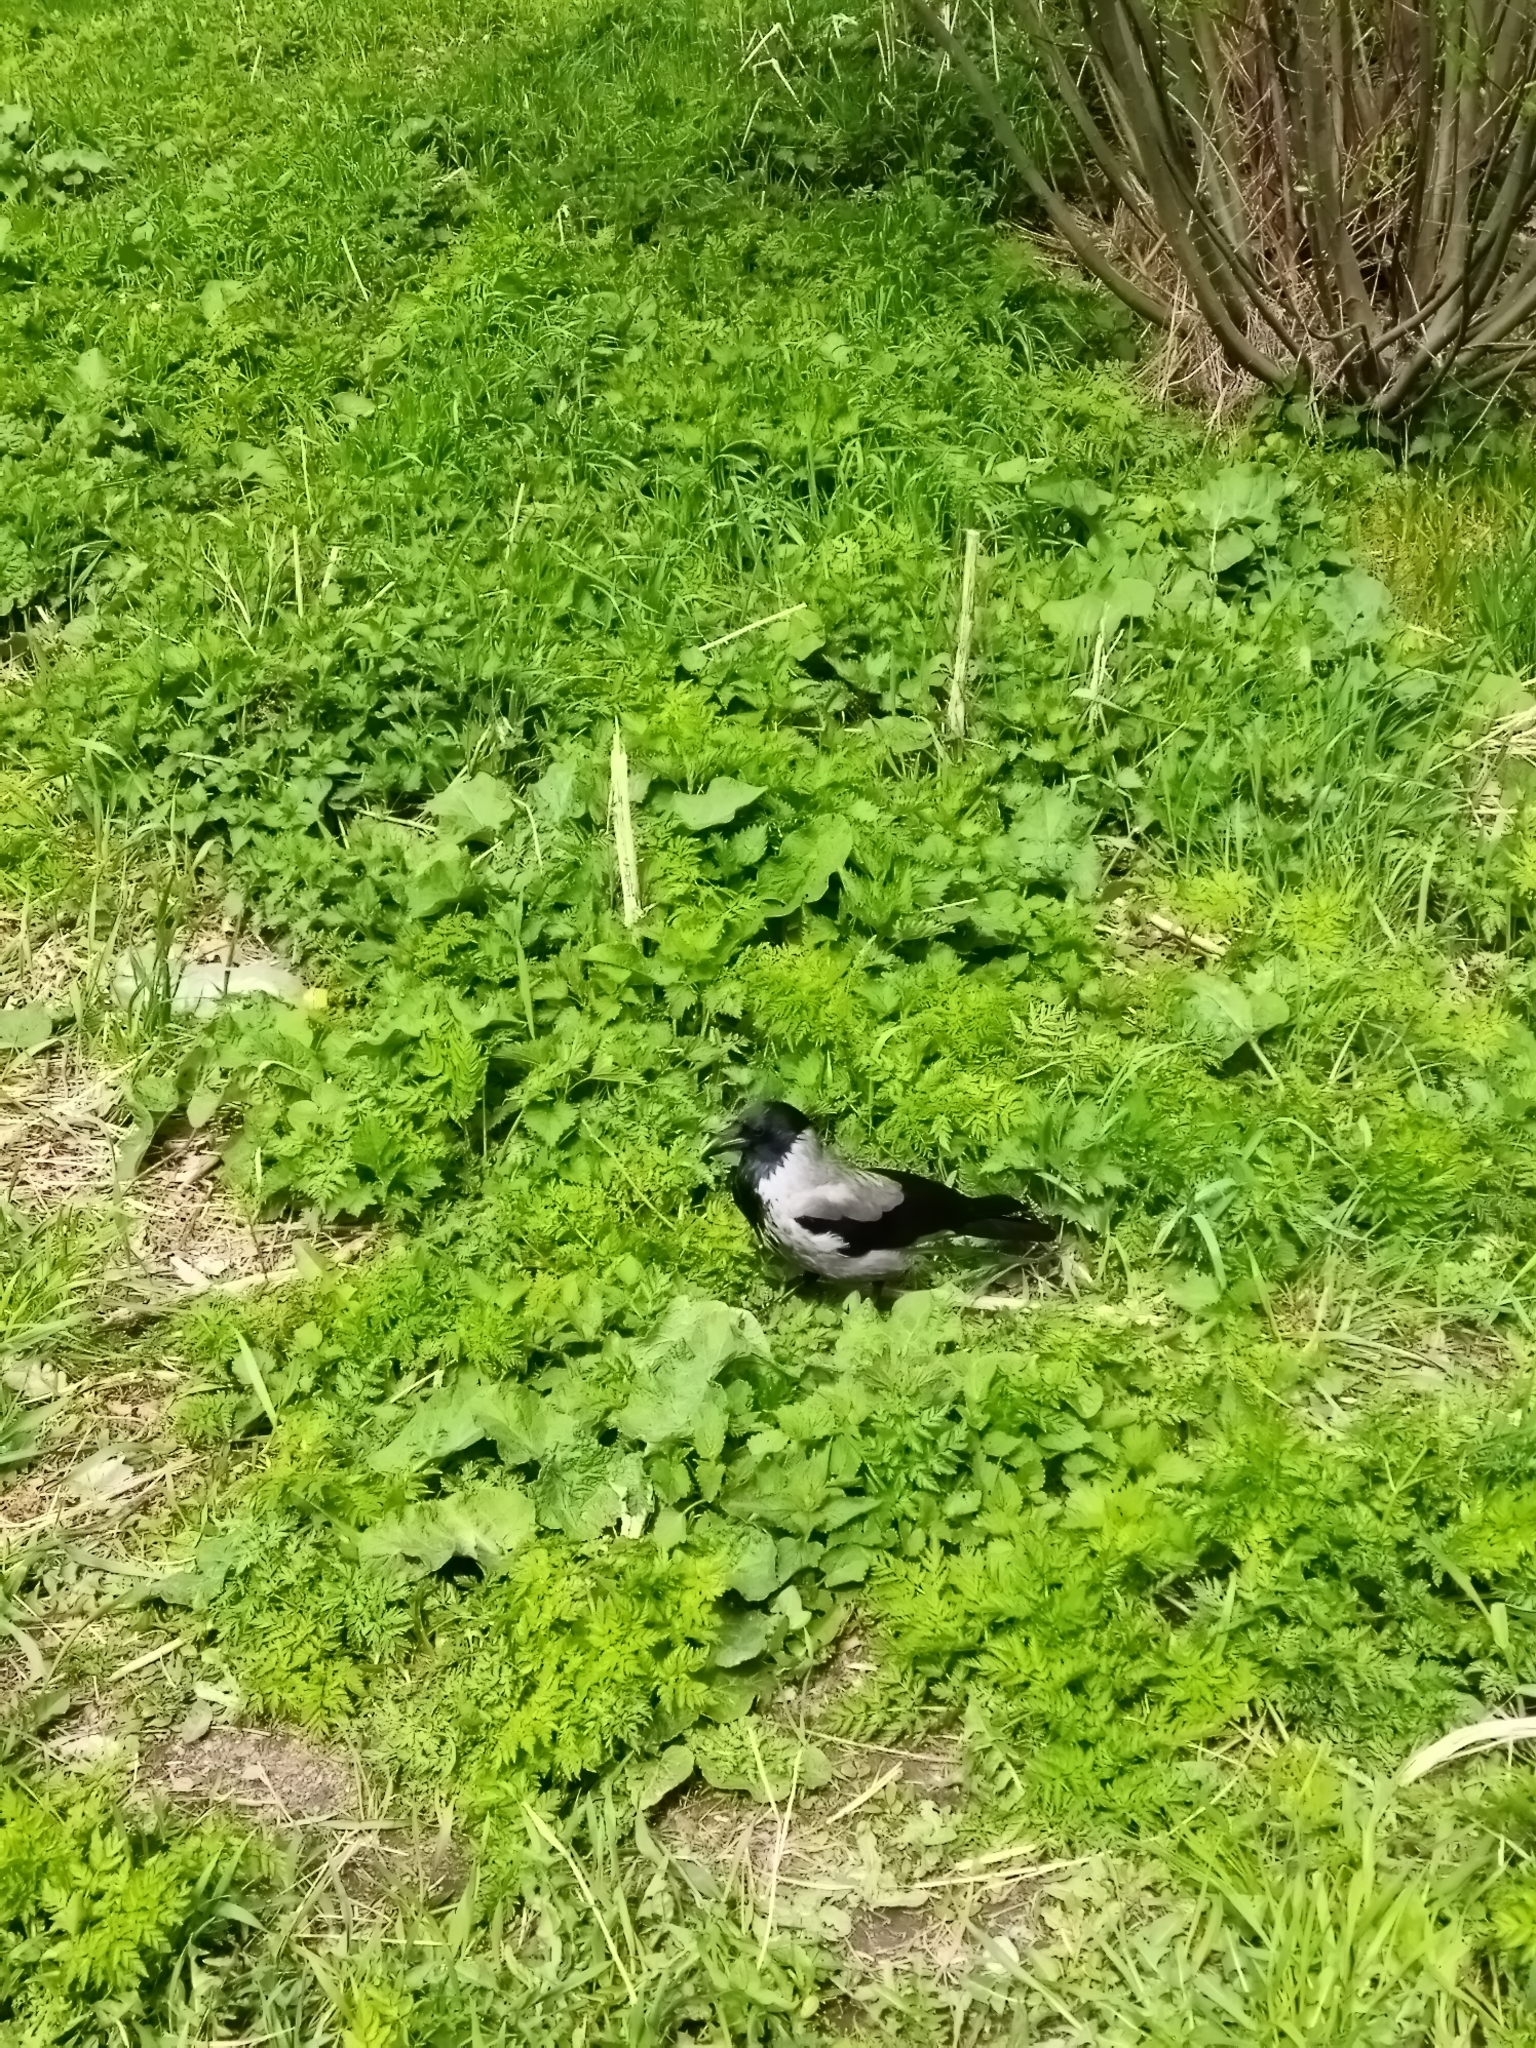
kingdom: Animalia
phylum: Chordata
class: Aves
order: Passeriformes
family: Corvidae
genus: Corvus
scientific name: Corvus cornix
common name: Hooded crow
